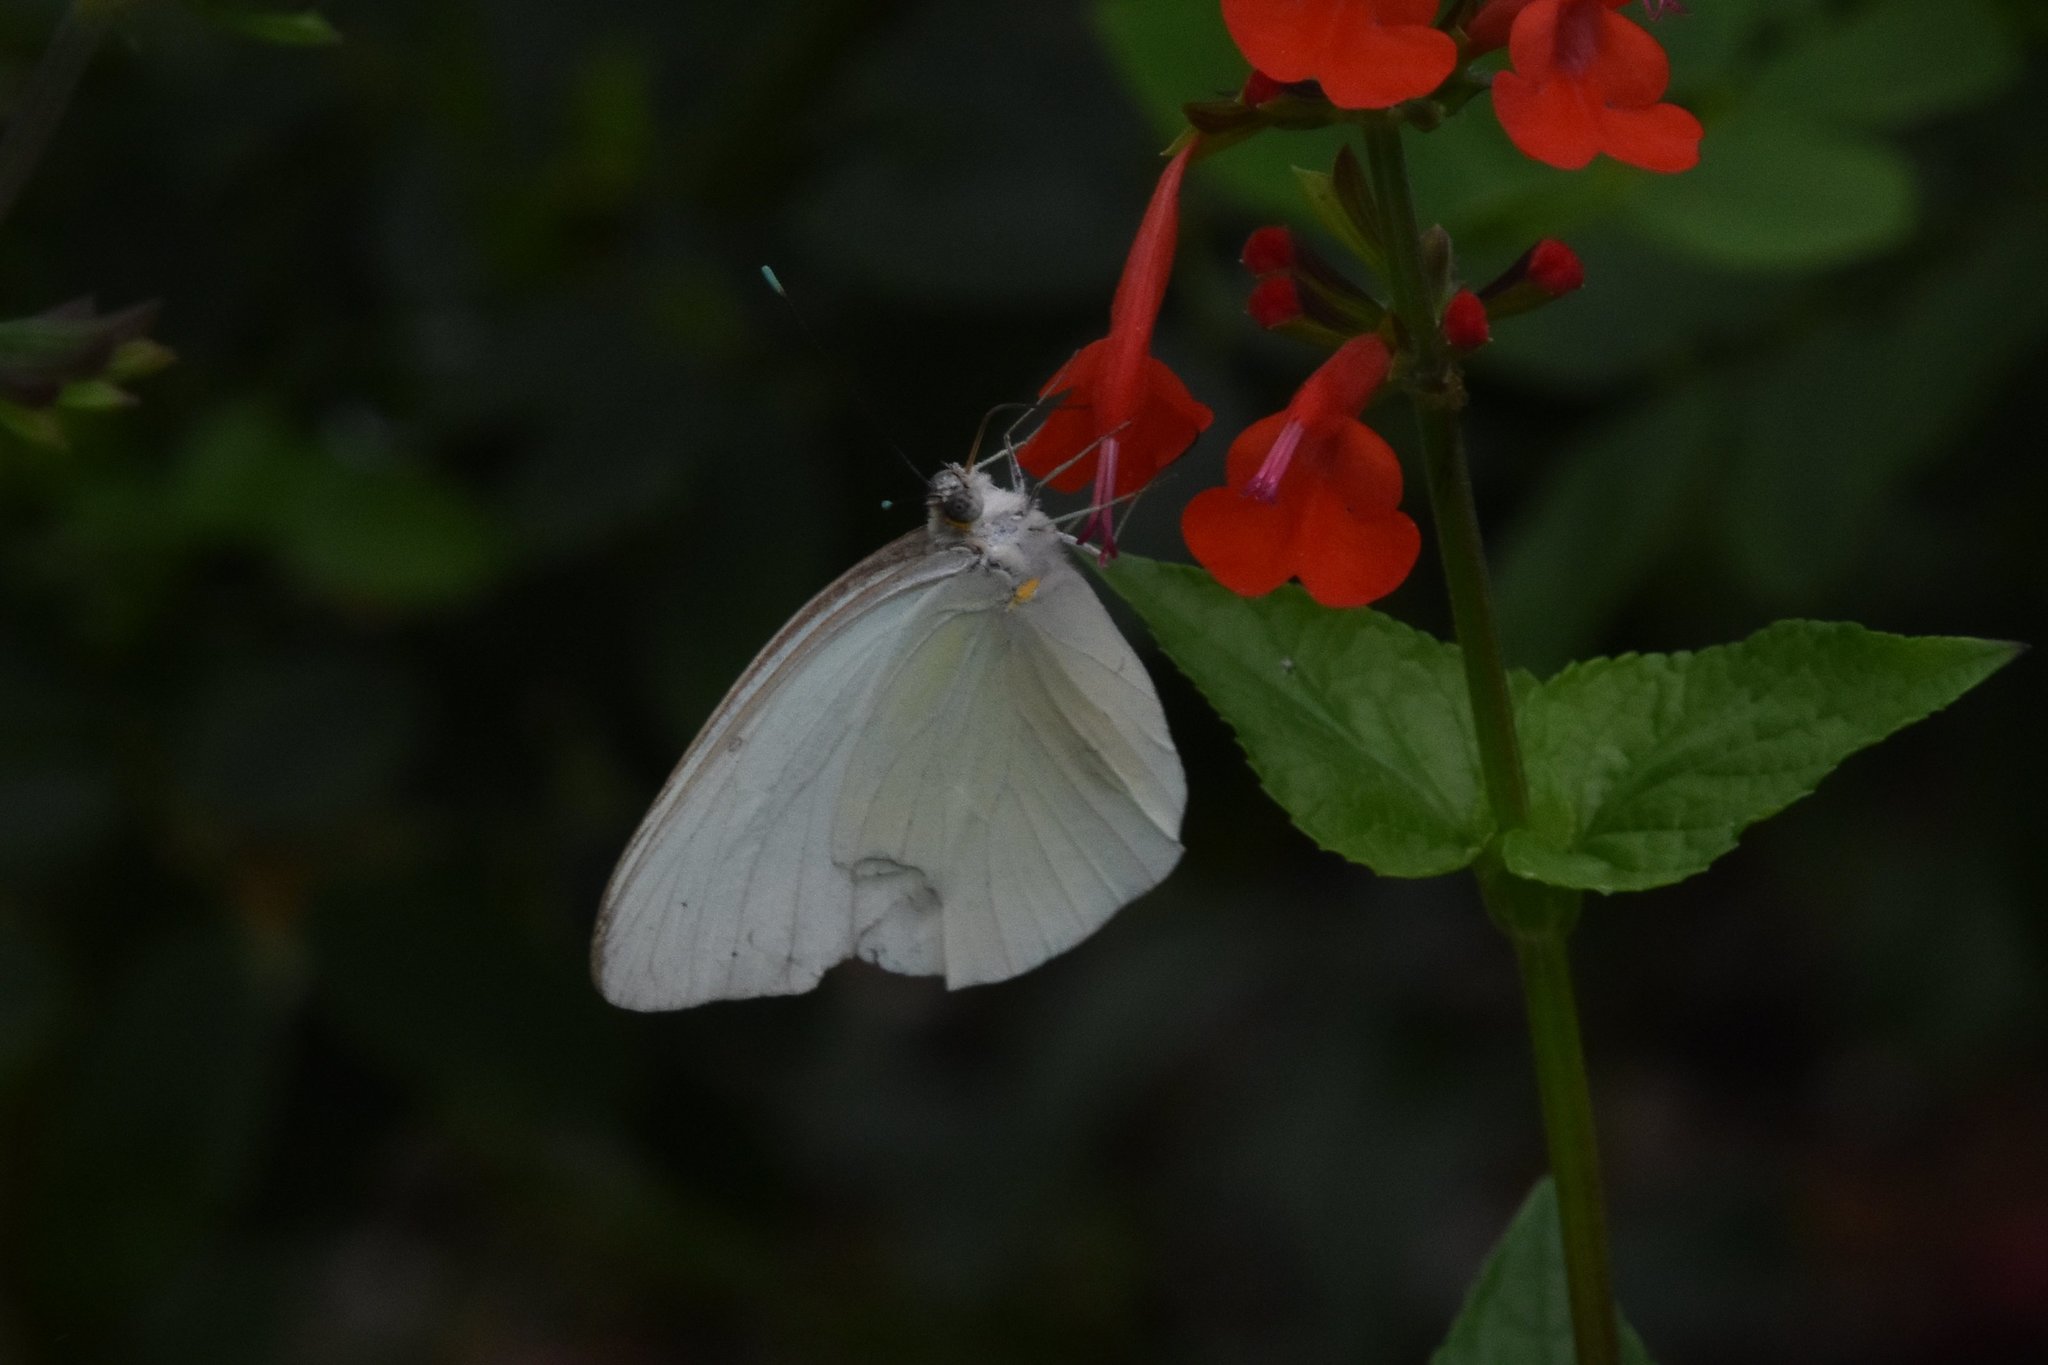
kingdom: Animalia
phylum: Arthropoda
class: Insecta
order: Lepidoptera
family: Pieridae
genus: Ascia
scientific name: Ascia monuste
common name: Great southern white
